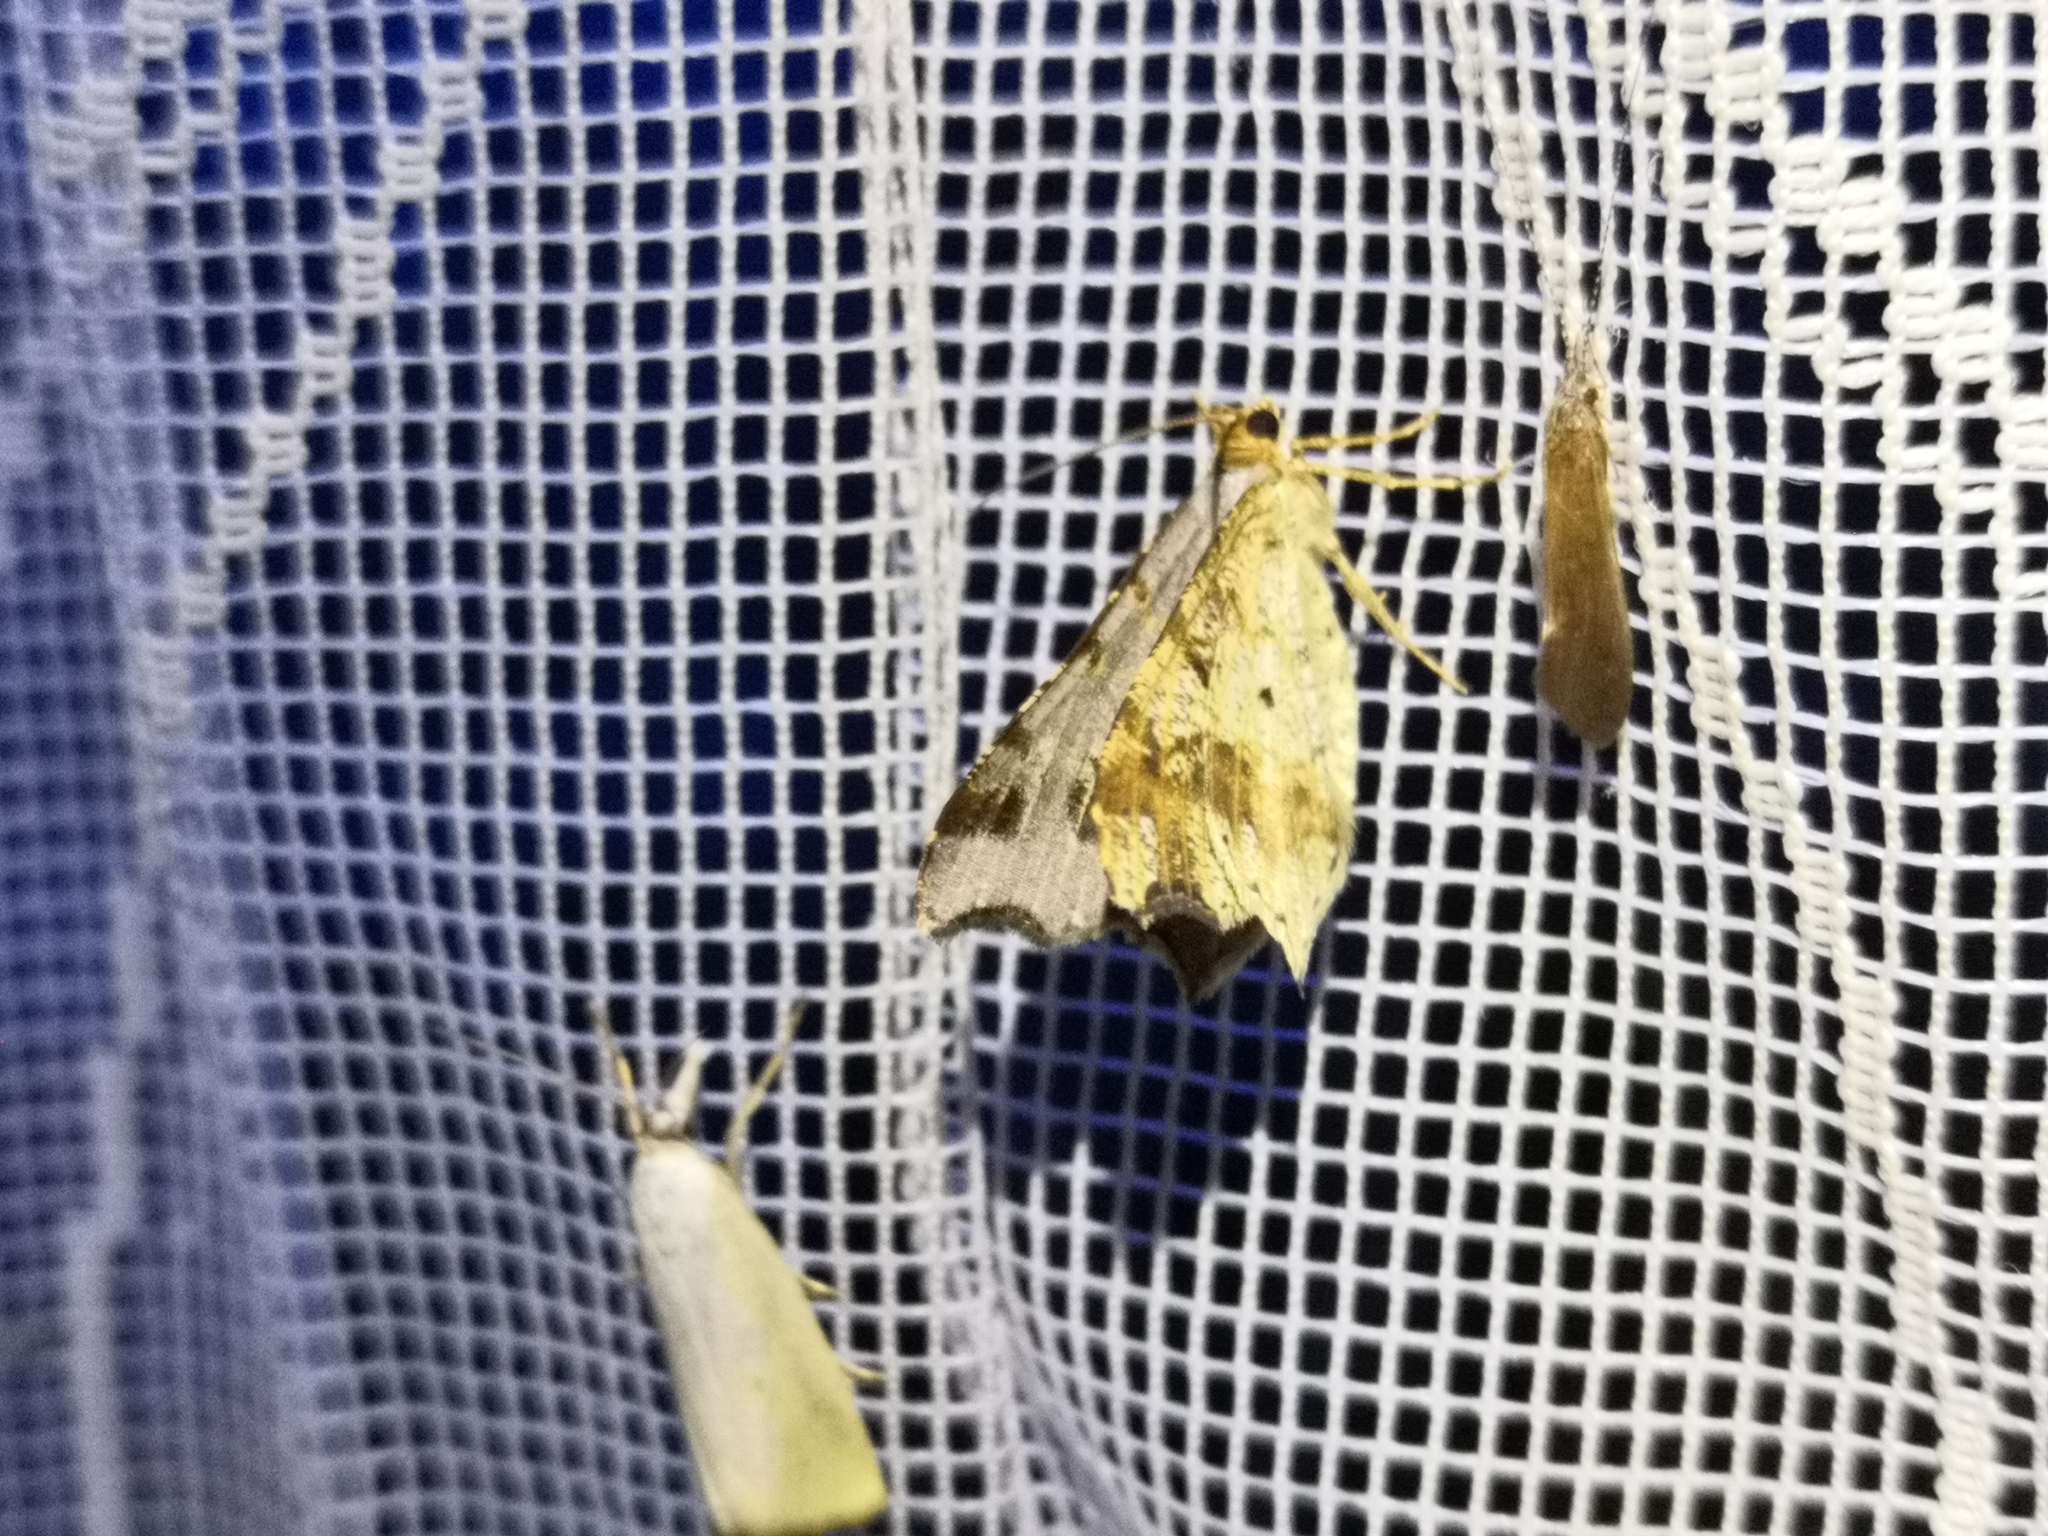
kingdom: Animalia
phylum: Arthropoda
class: Insecta
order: Lepidoptera
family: Geometridae
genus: Macaria
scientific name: Macaria alternata
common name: Sharp-angled peacock
